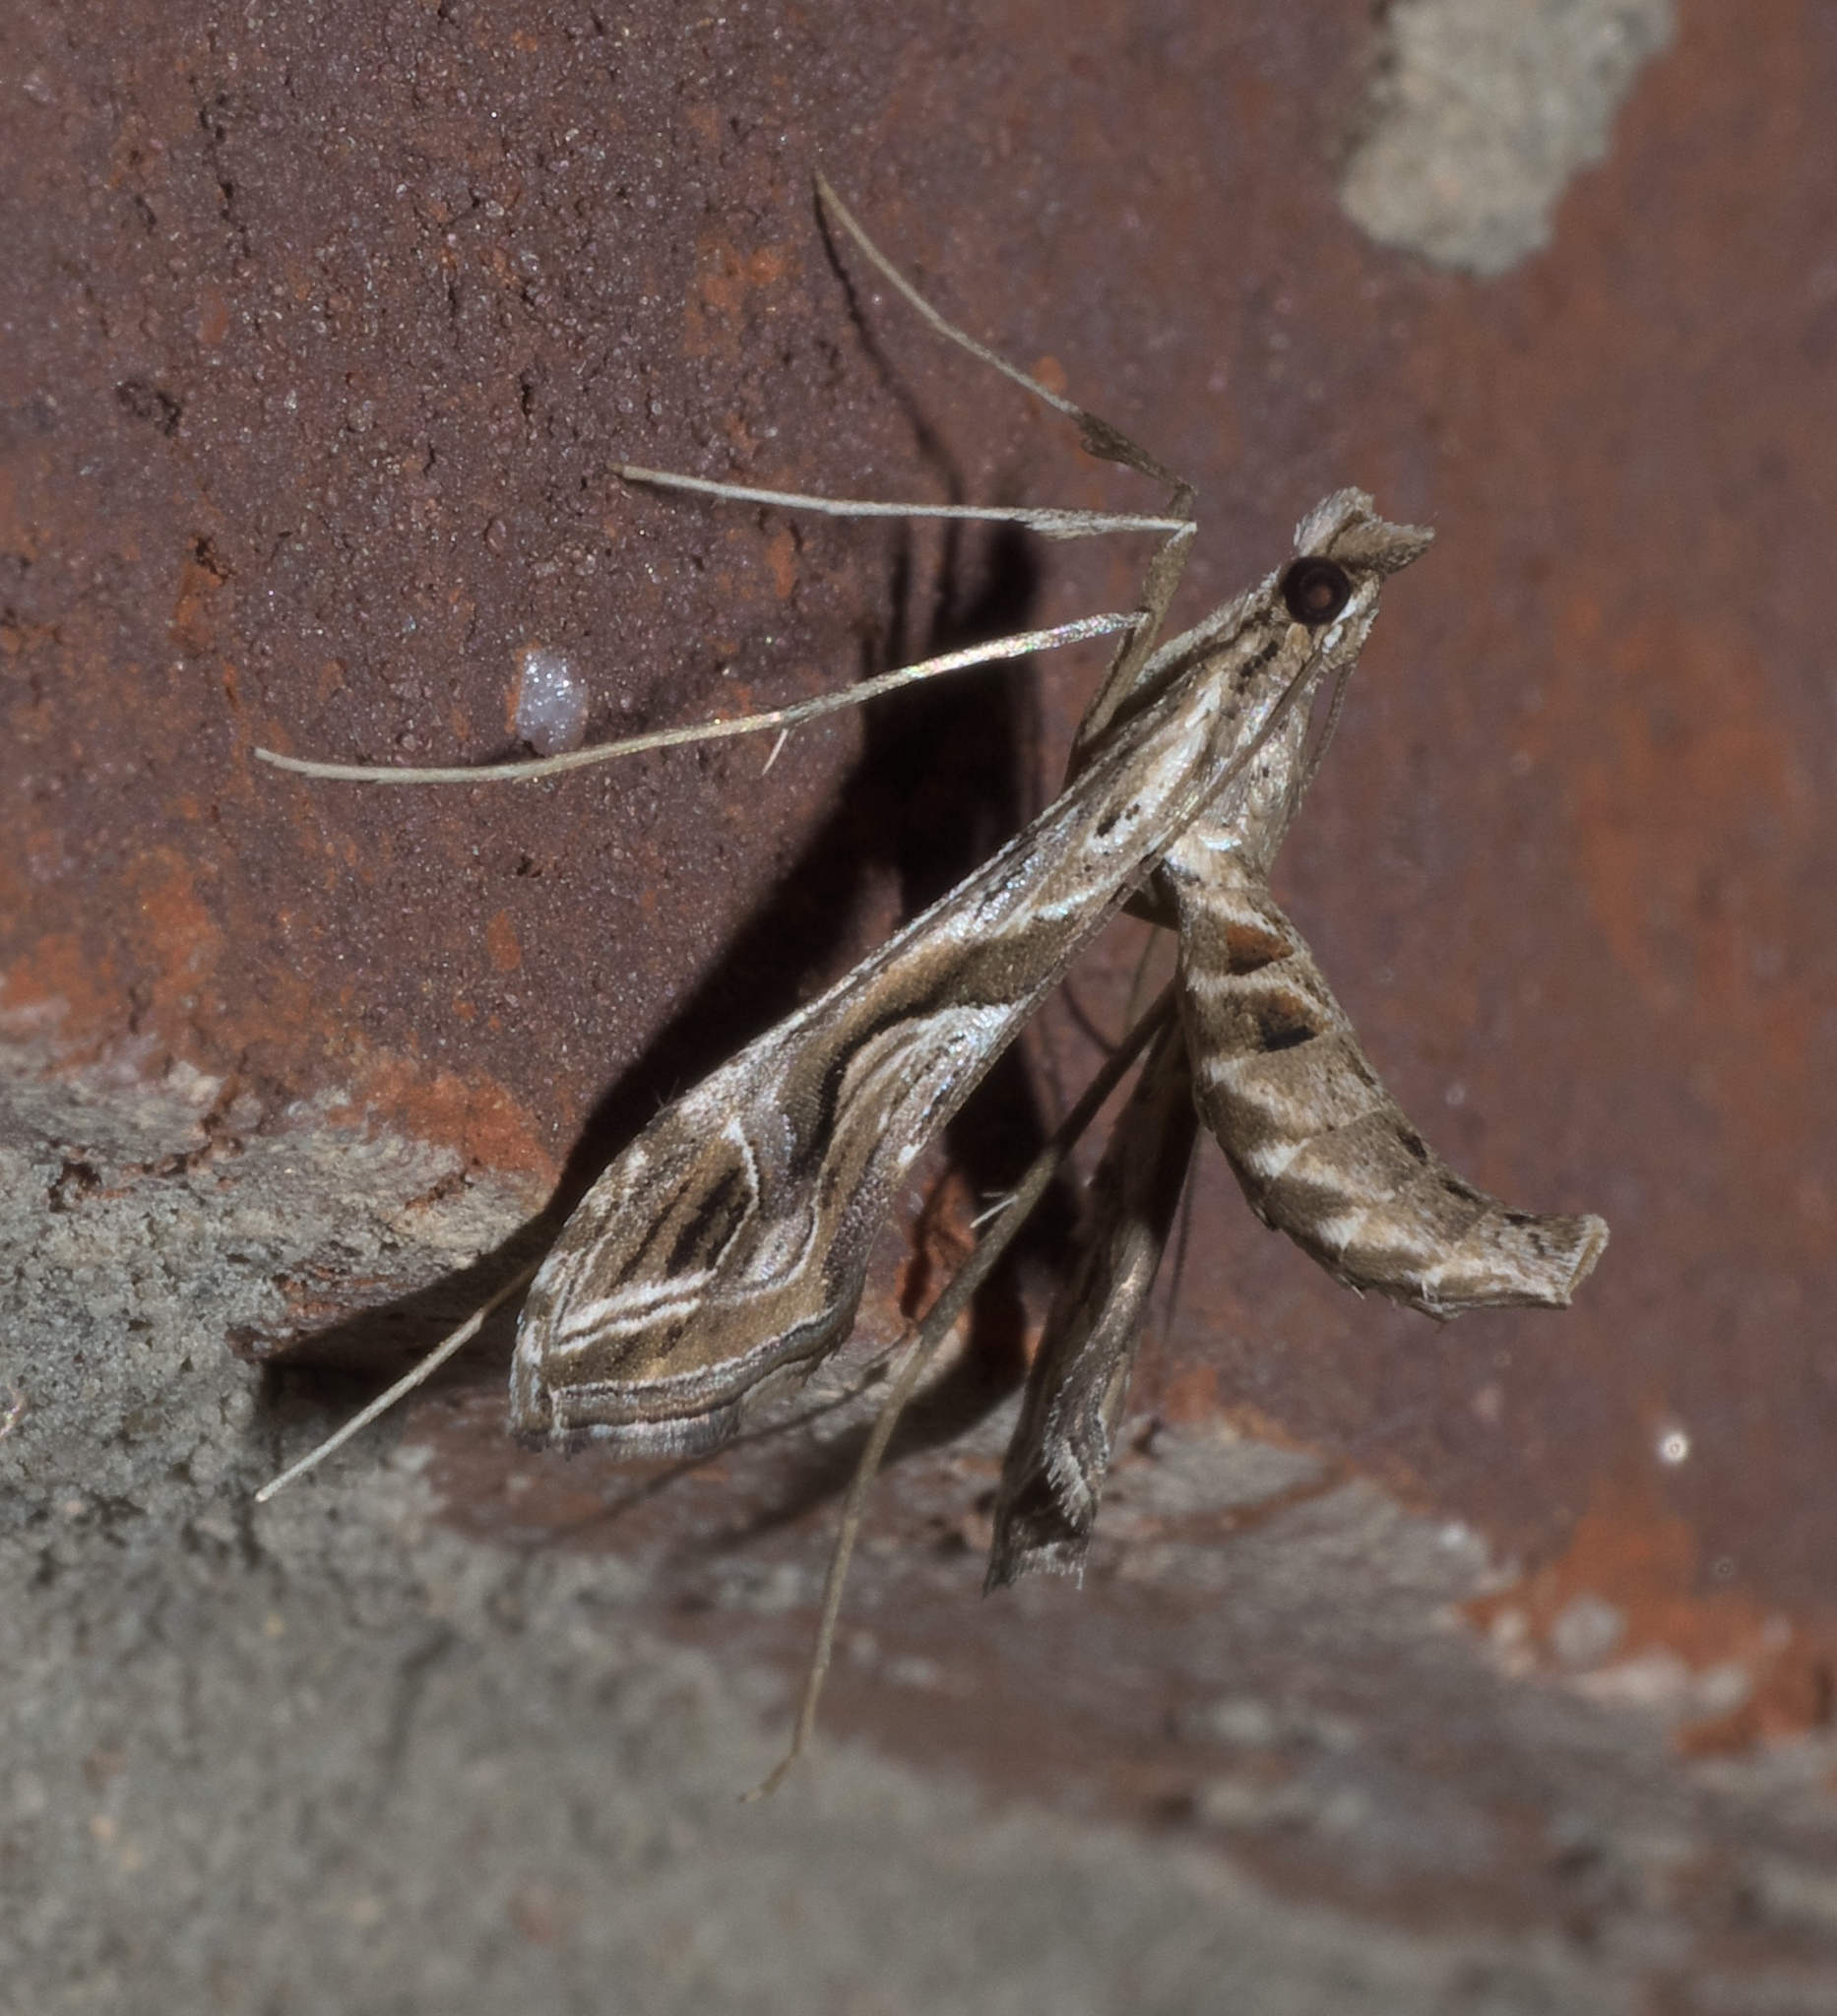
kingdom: Animalia
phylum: Arthropoda
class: Insecta
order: Lepidoptera
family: Crambidae
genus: Lineodes
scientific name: Lineodes integra
